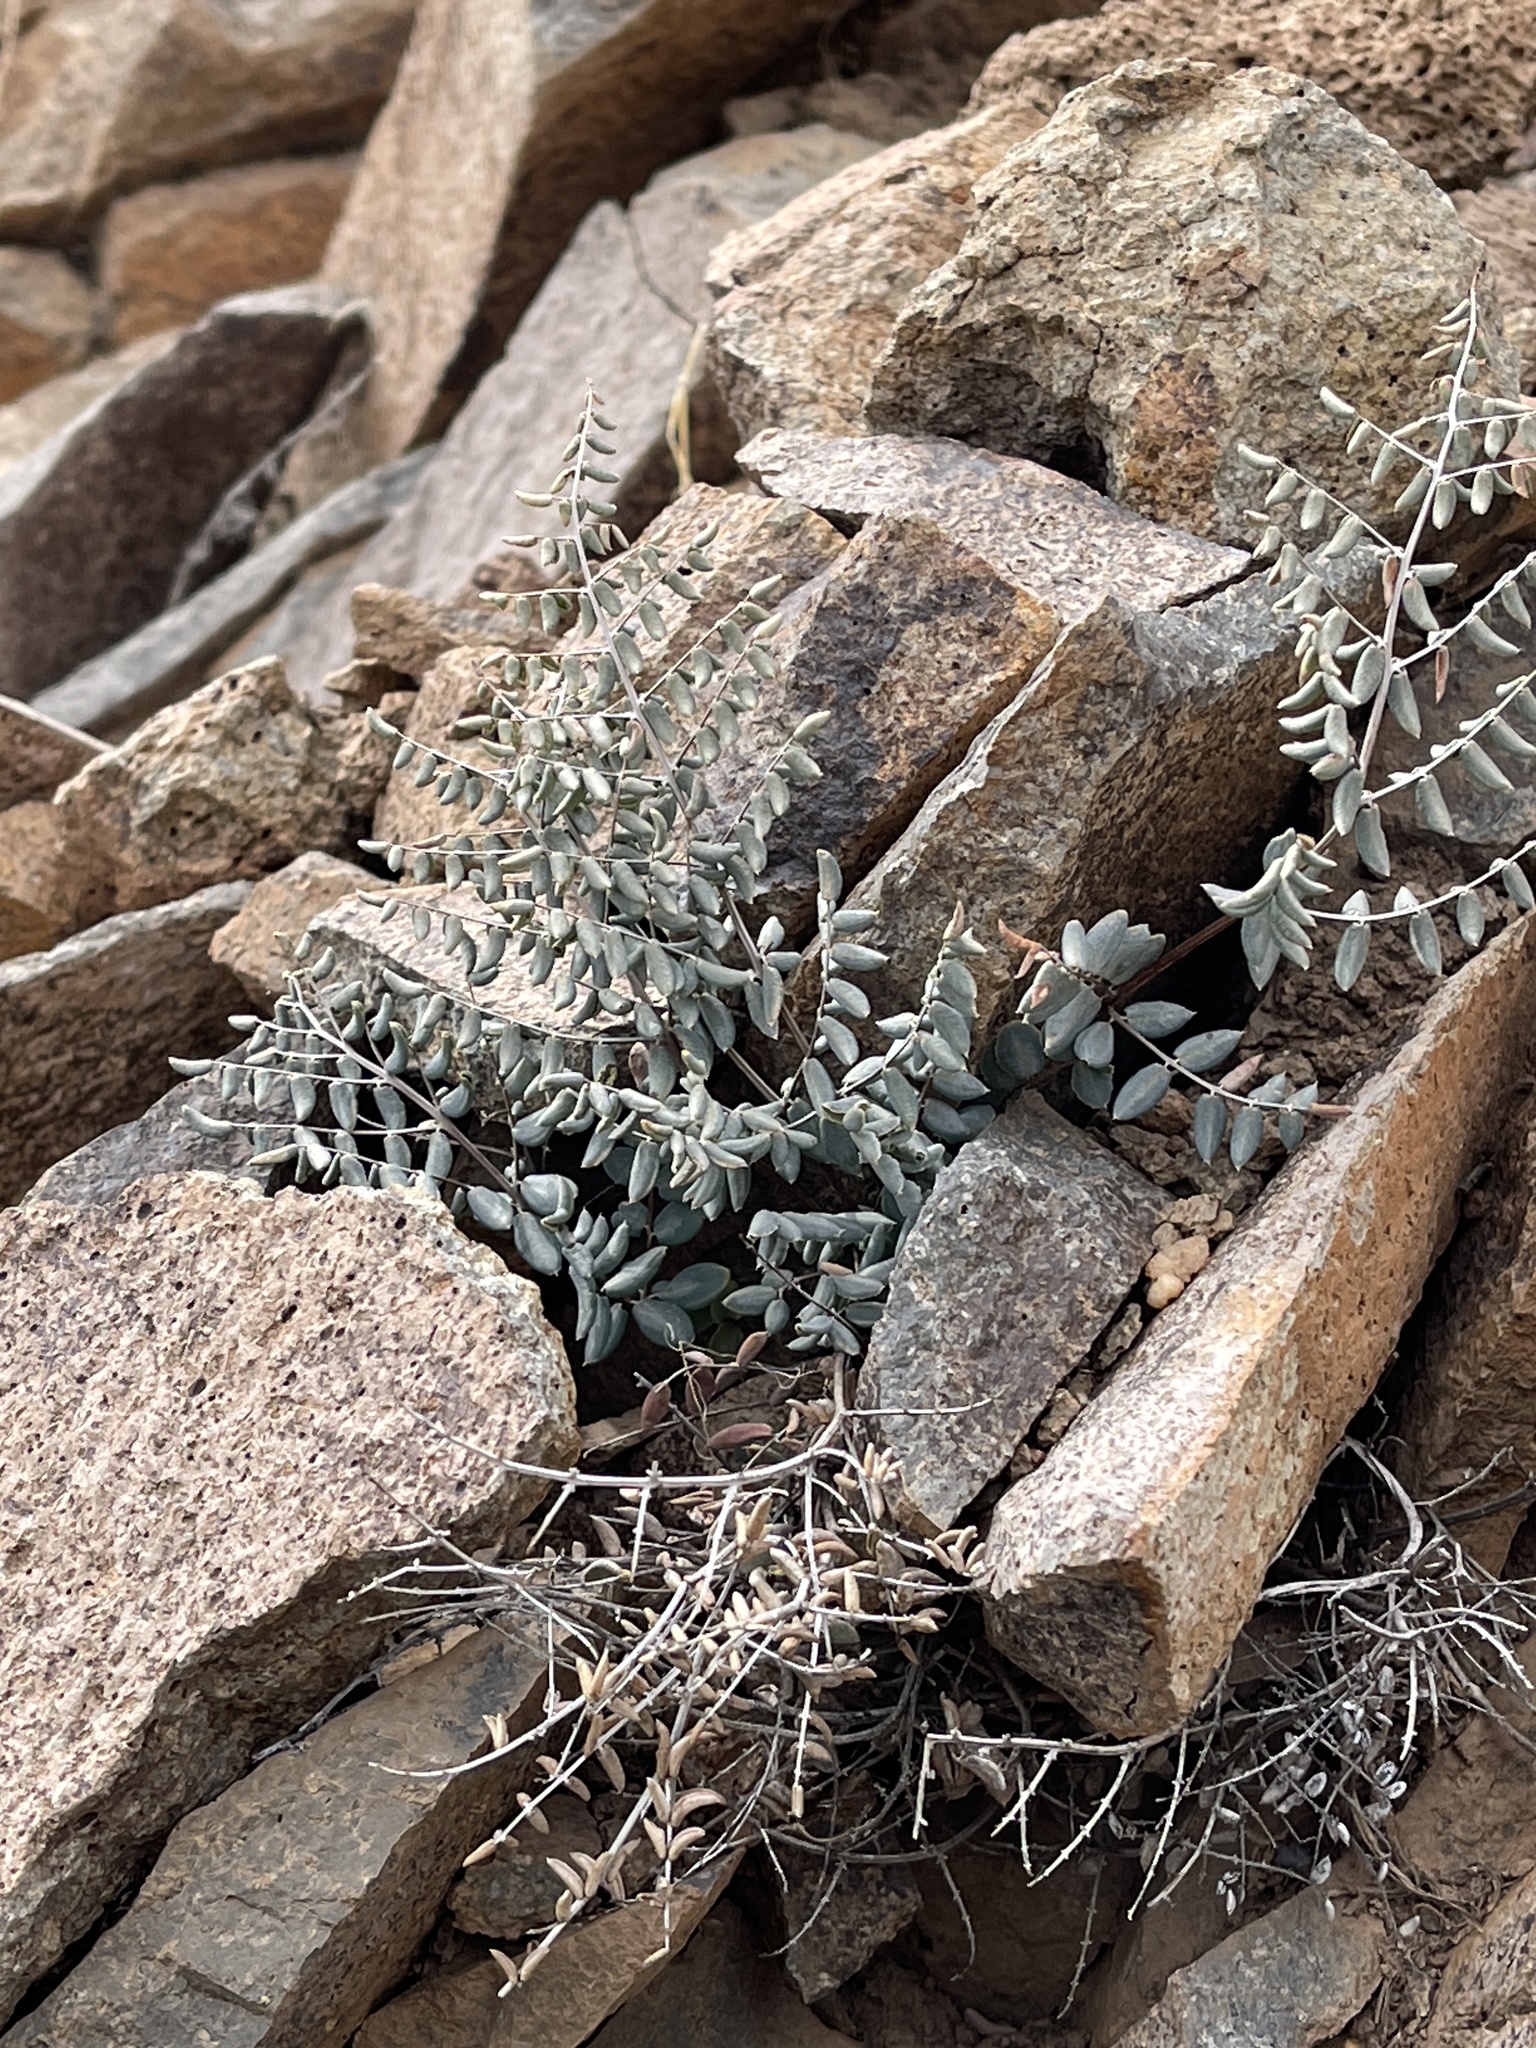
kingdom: Plantae
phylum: Tracheophyta
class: Polypodiopsida
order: Polypodiales
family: Pteridaceae
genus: Pellaea
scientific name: Pellaea truncata
